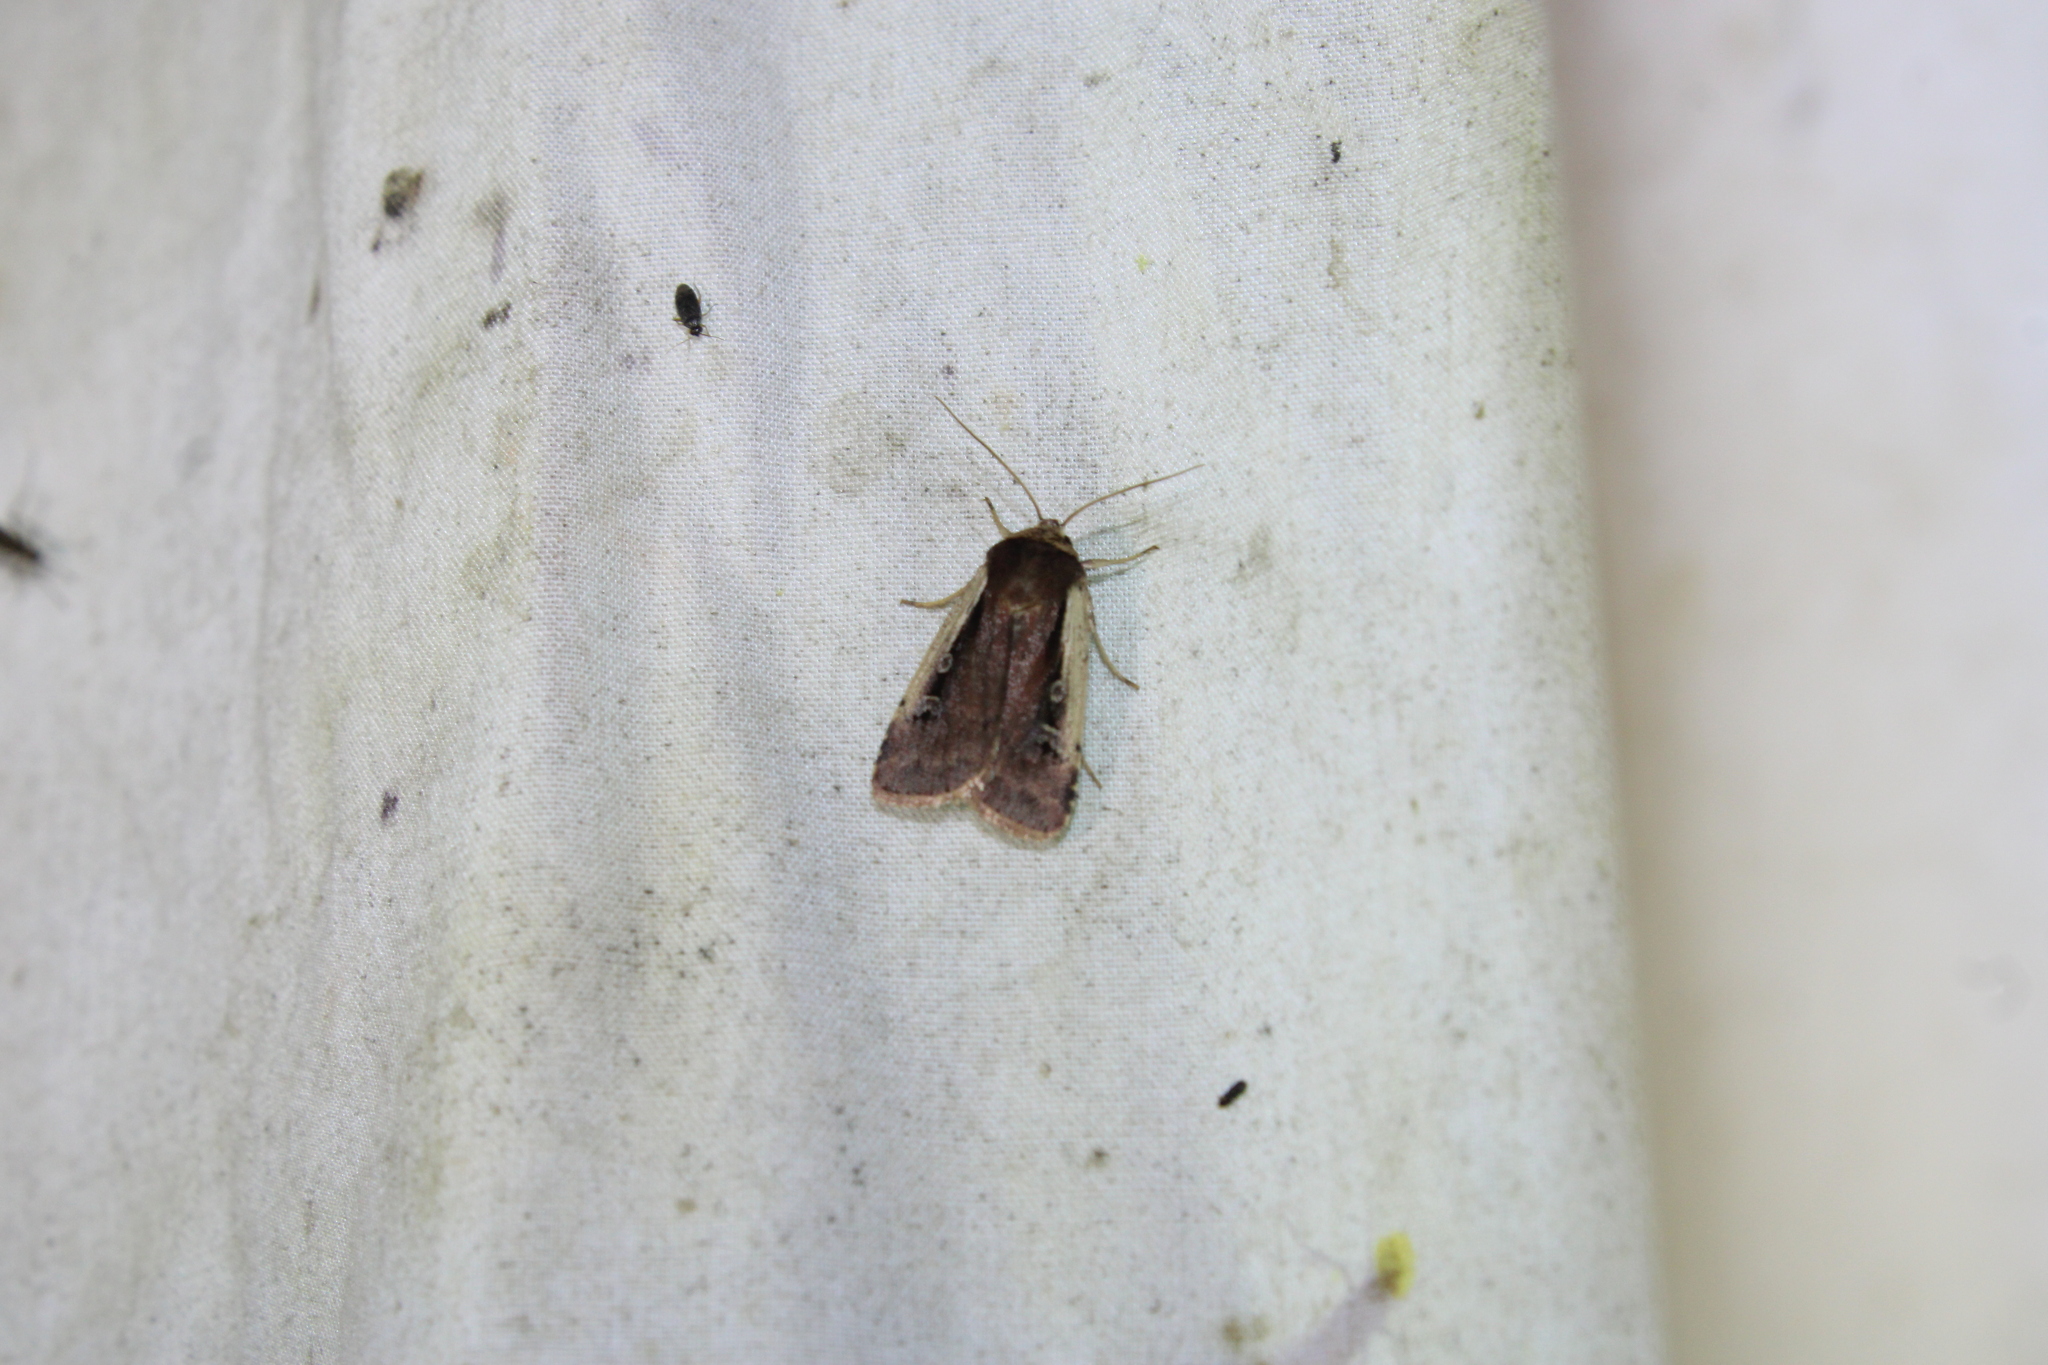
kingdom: Animalia
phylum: Arthropoda
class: Insecta
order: Lepidoptera
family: Noctuidae
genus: Ochropleura
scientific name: Ochropleura implecta
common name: Flame-shouldered dart
